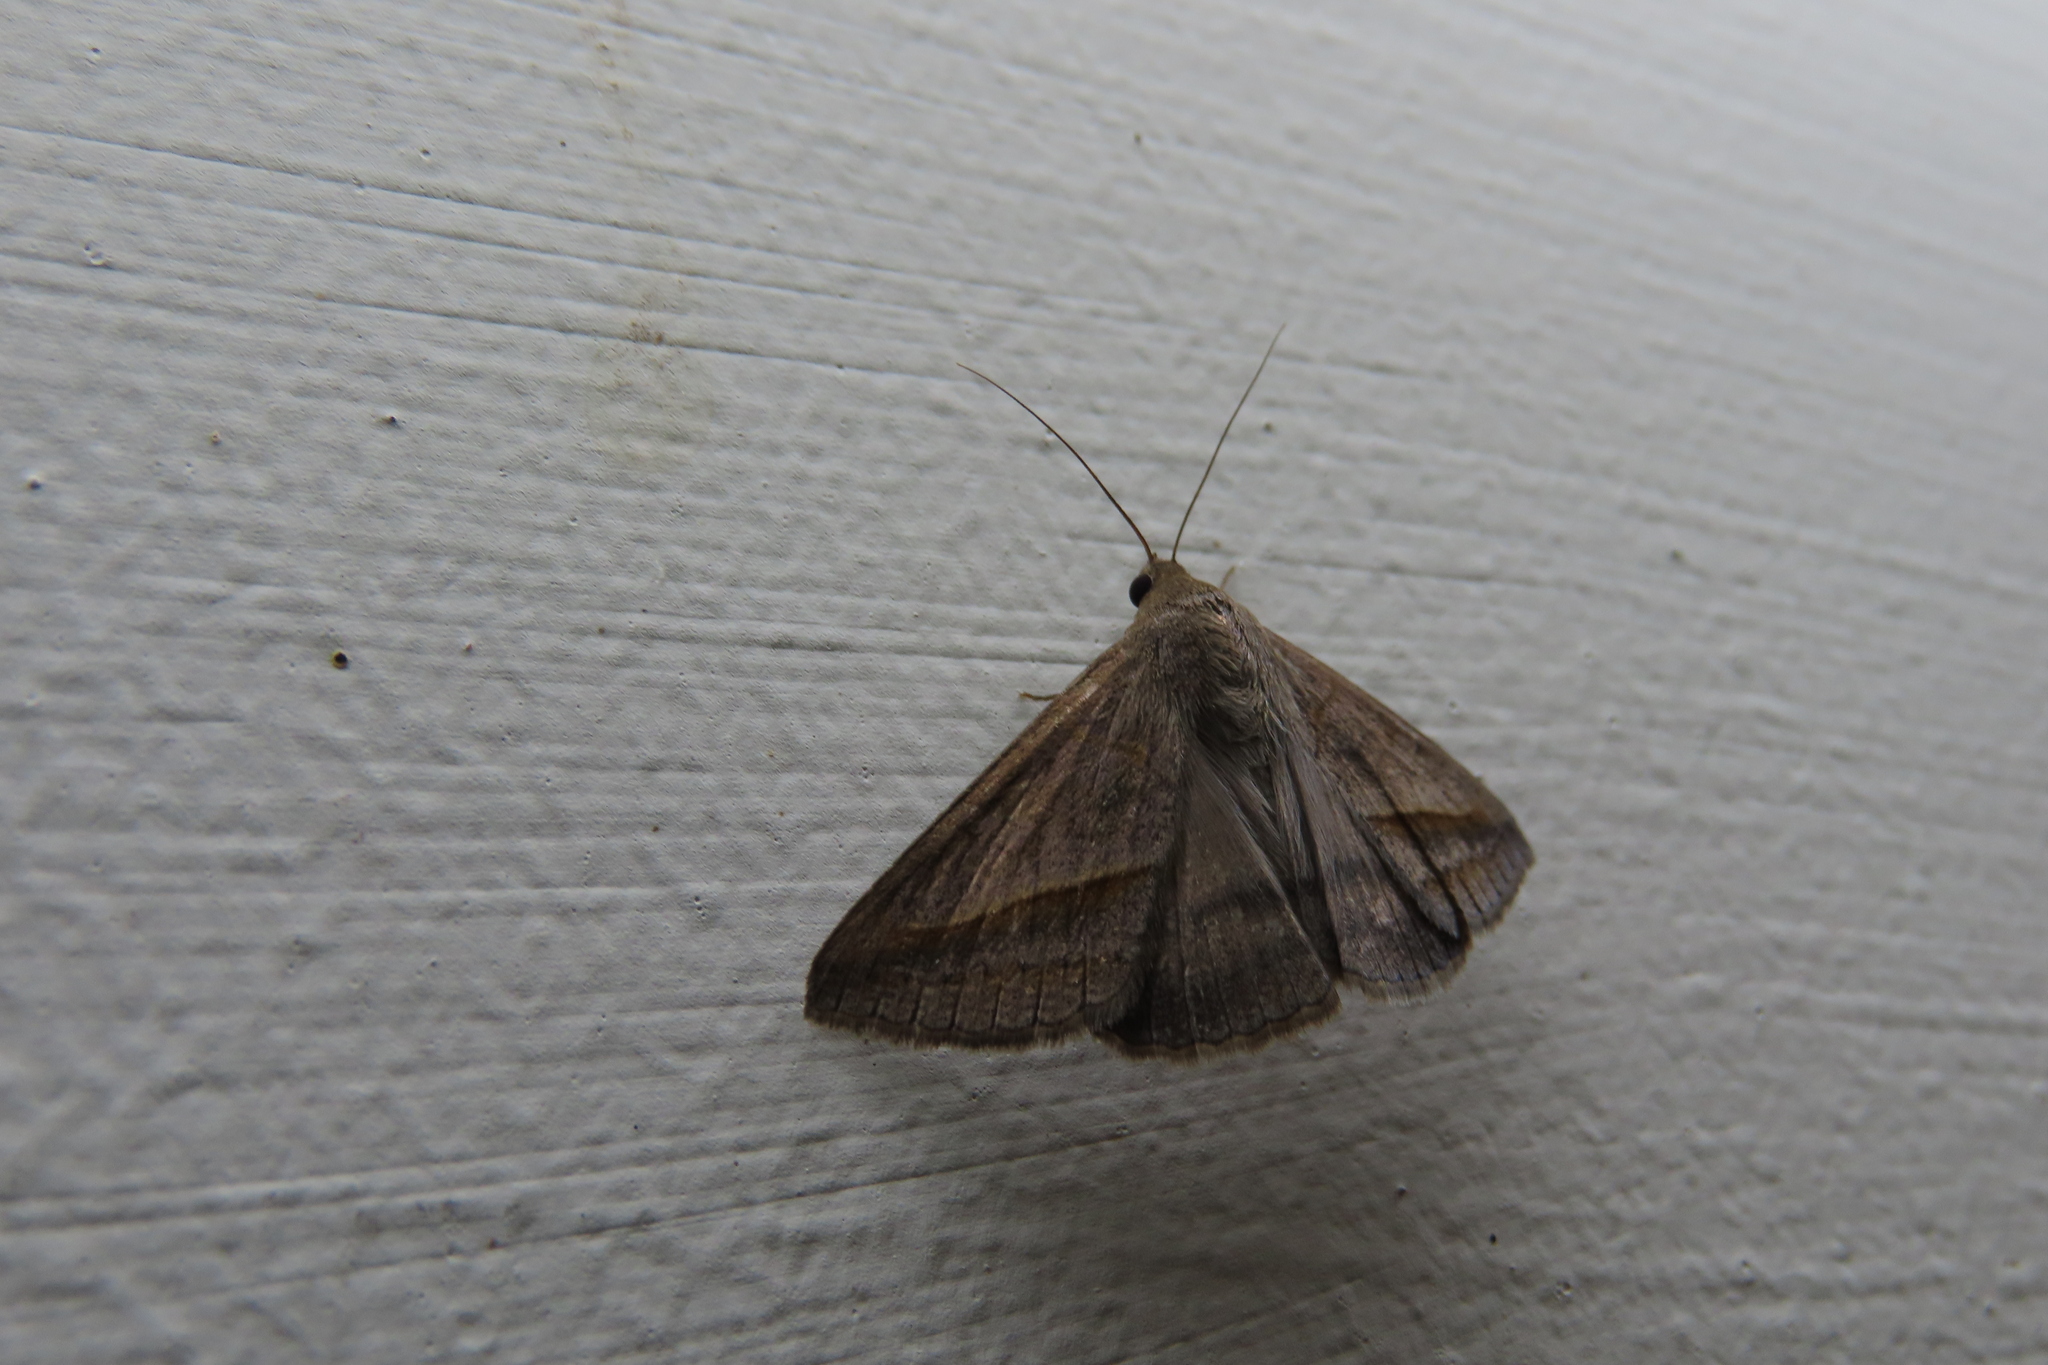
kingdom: Animalia
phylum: Arthropoda
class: Insecta
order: Lepidoptera
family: Erebidae
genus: Mocis
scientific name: Mocis frugalis
